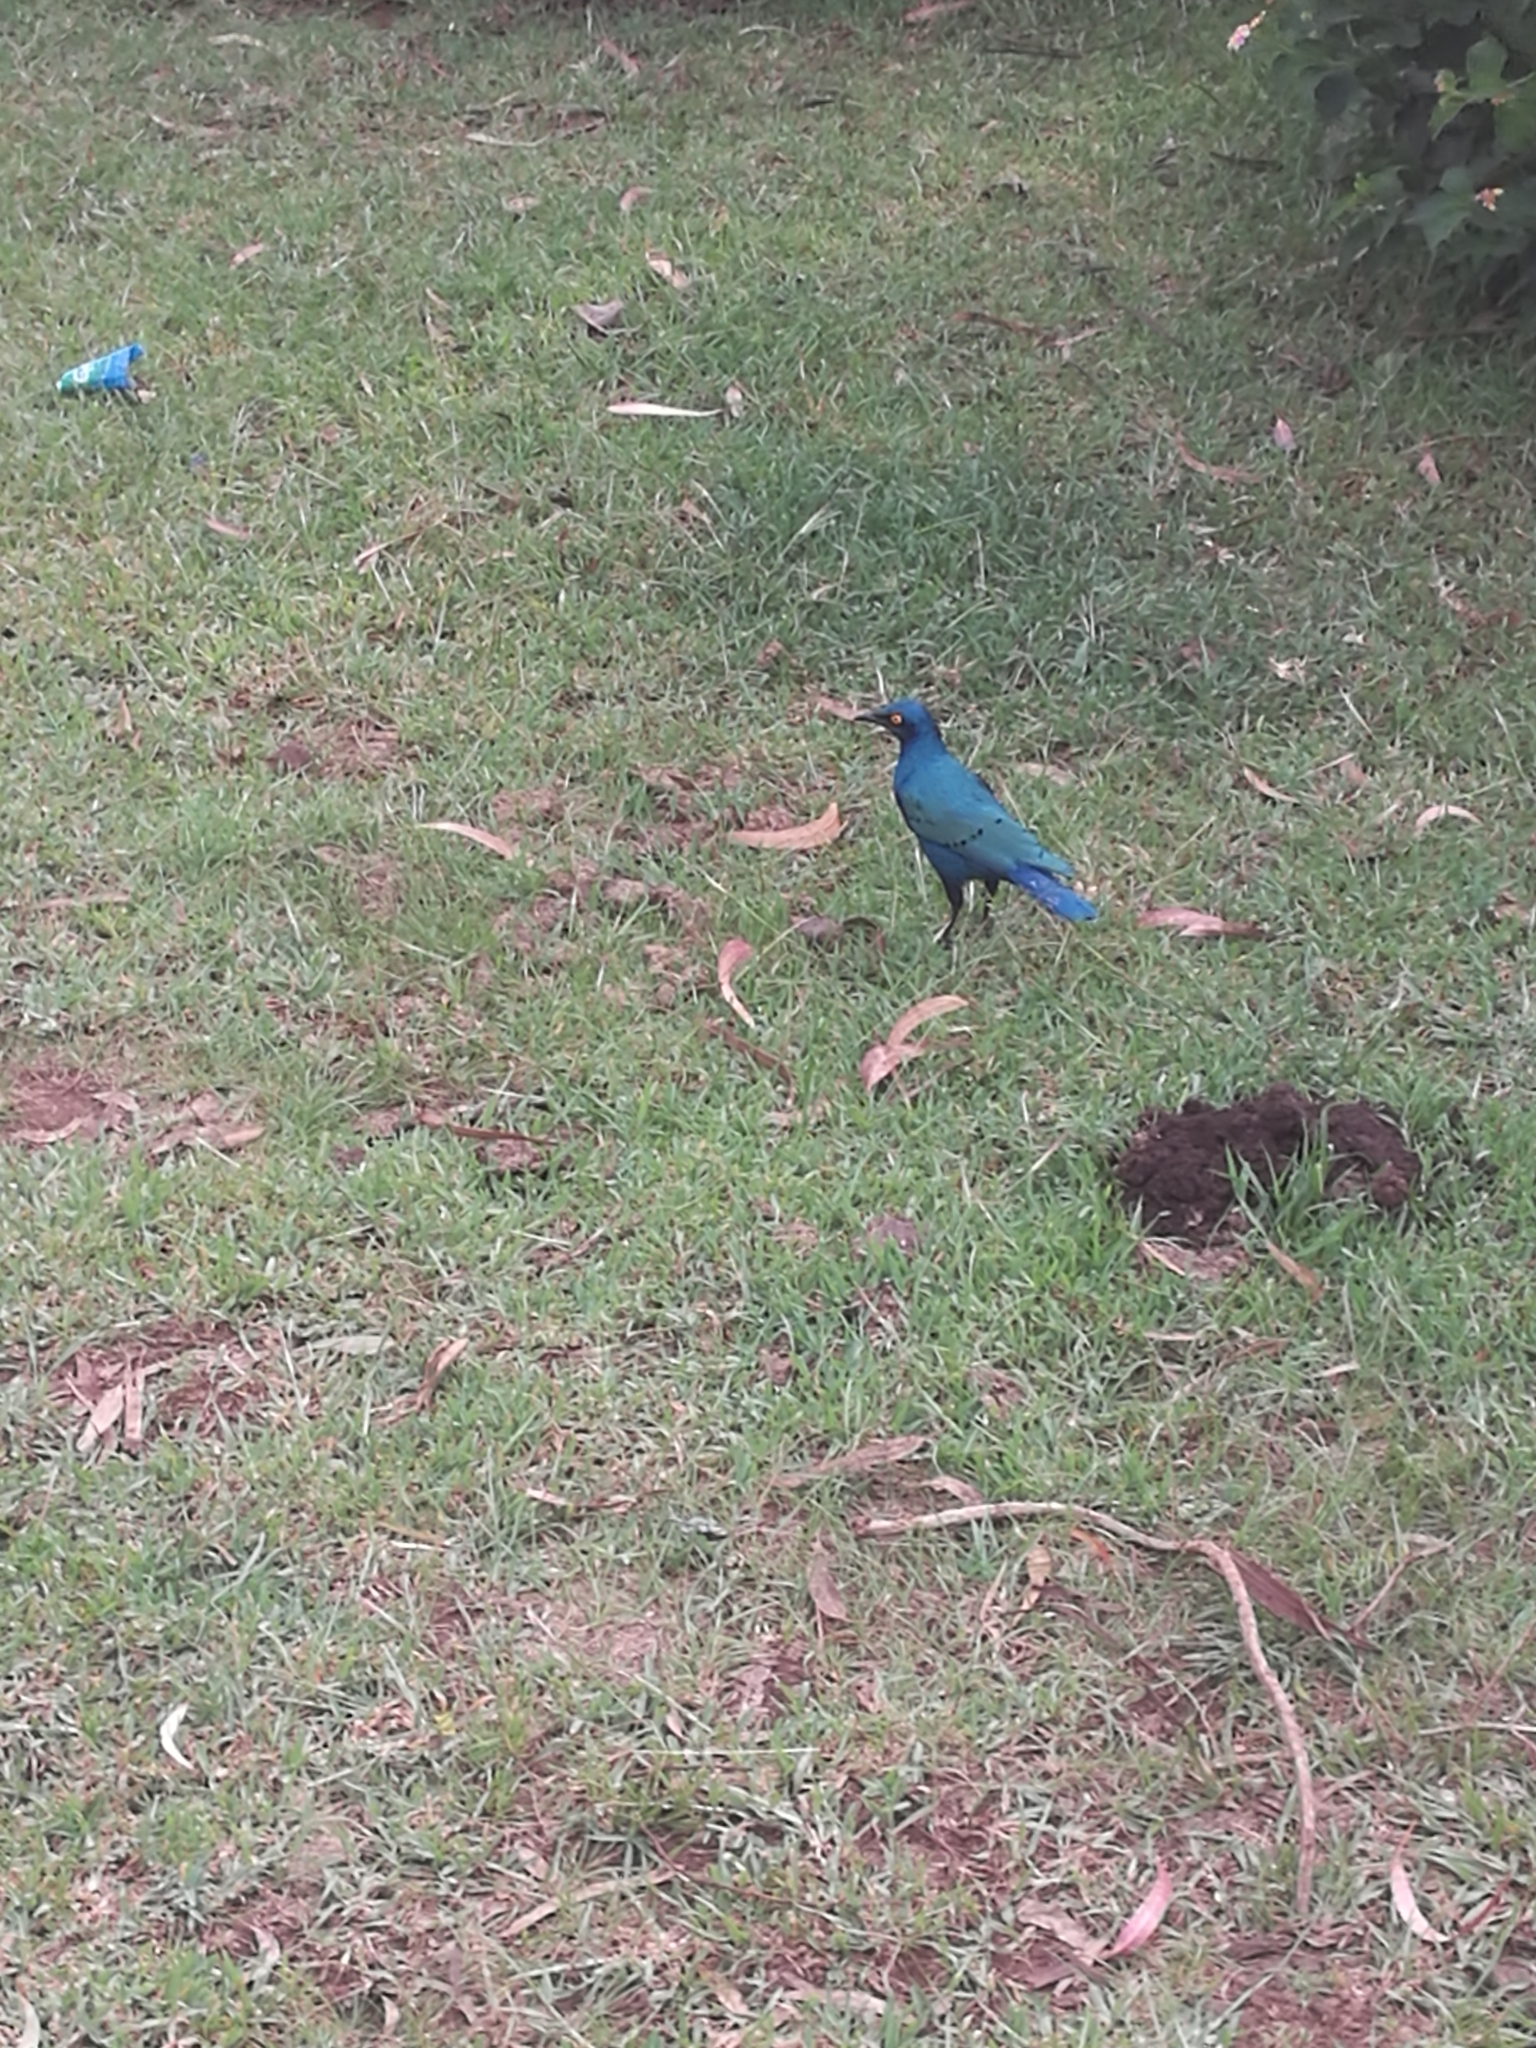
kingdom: Animalia
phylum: Chordata
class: Aves
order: Passeriformes
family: Sturnidae
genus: Lamprotornis
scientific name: Lamprotornis chalybaeus
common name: Greater blue-eared starling
